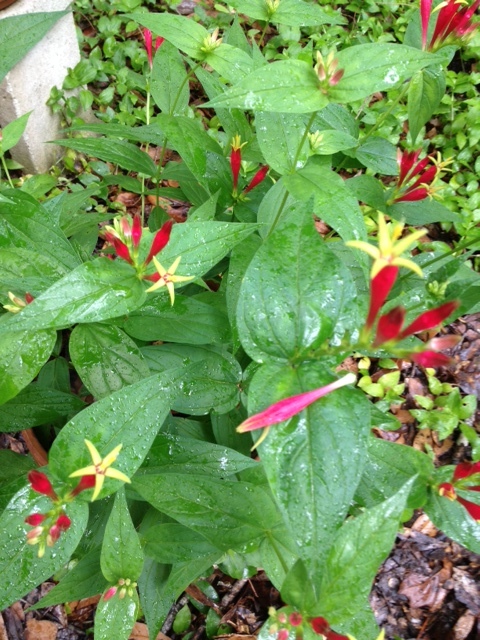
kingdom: Plantae
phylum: Tracheophyta
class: Magnoliopsida
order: Gentianales
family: Loganiaceae
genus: Spigelia
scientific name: Spigelia marilandica
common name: Indian-pink
